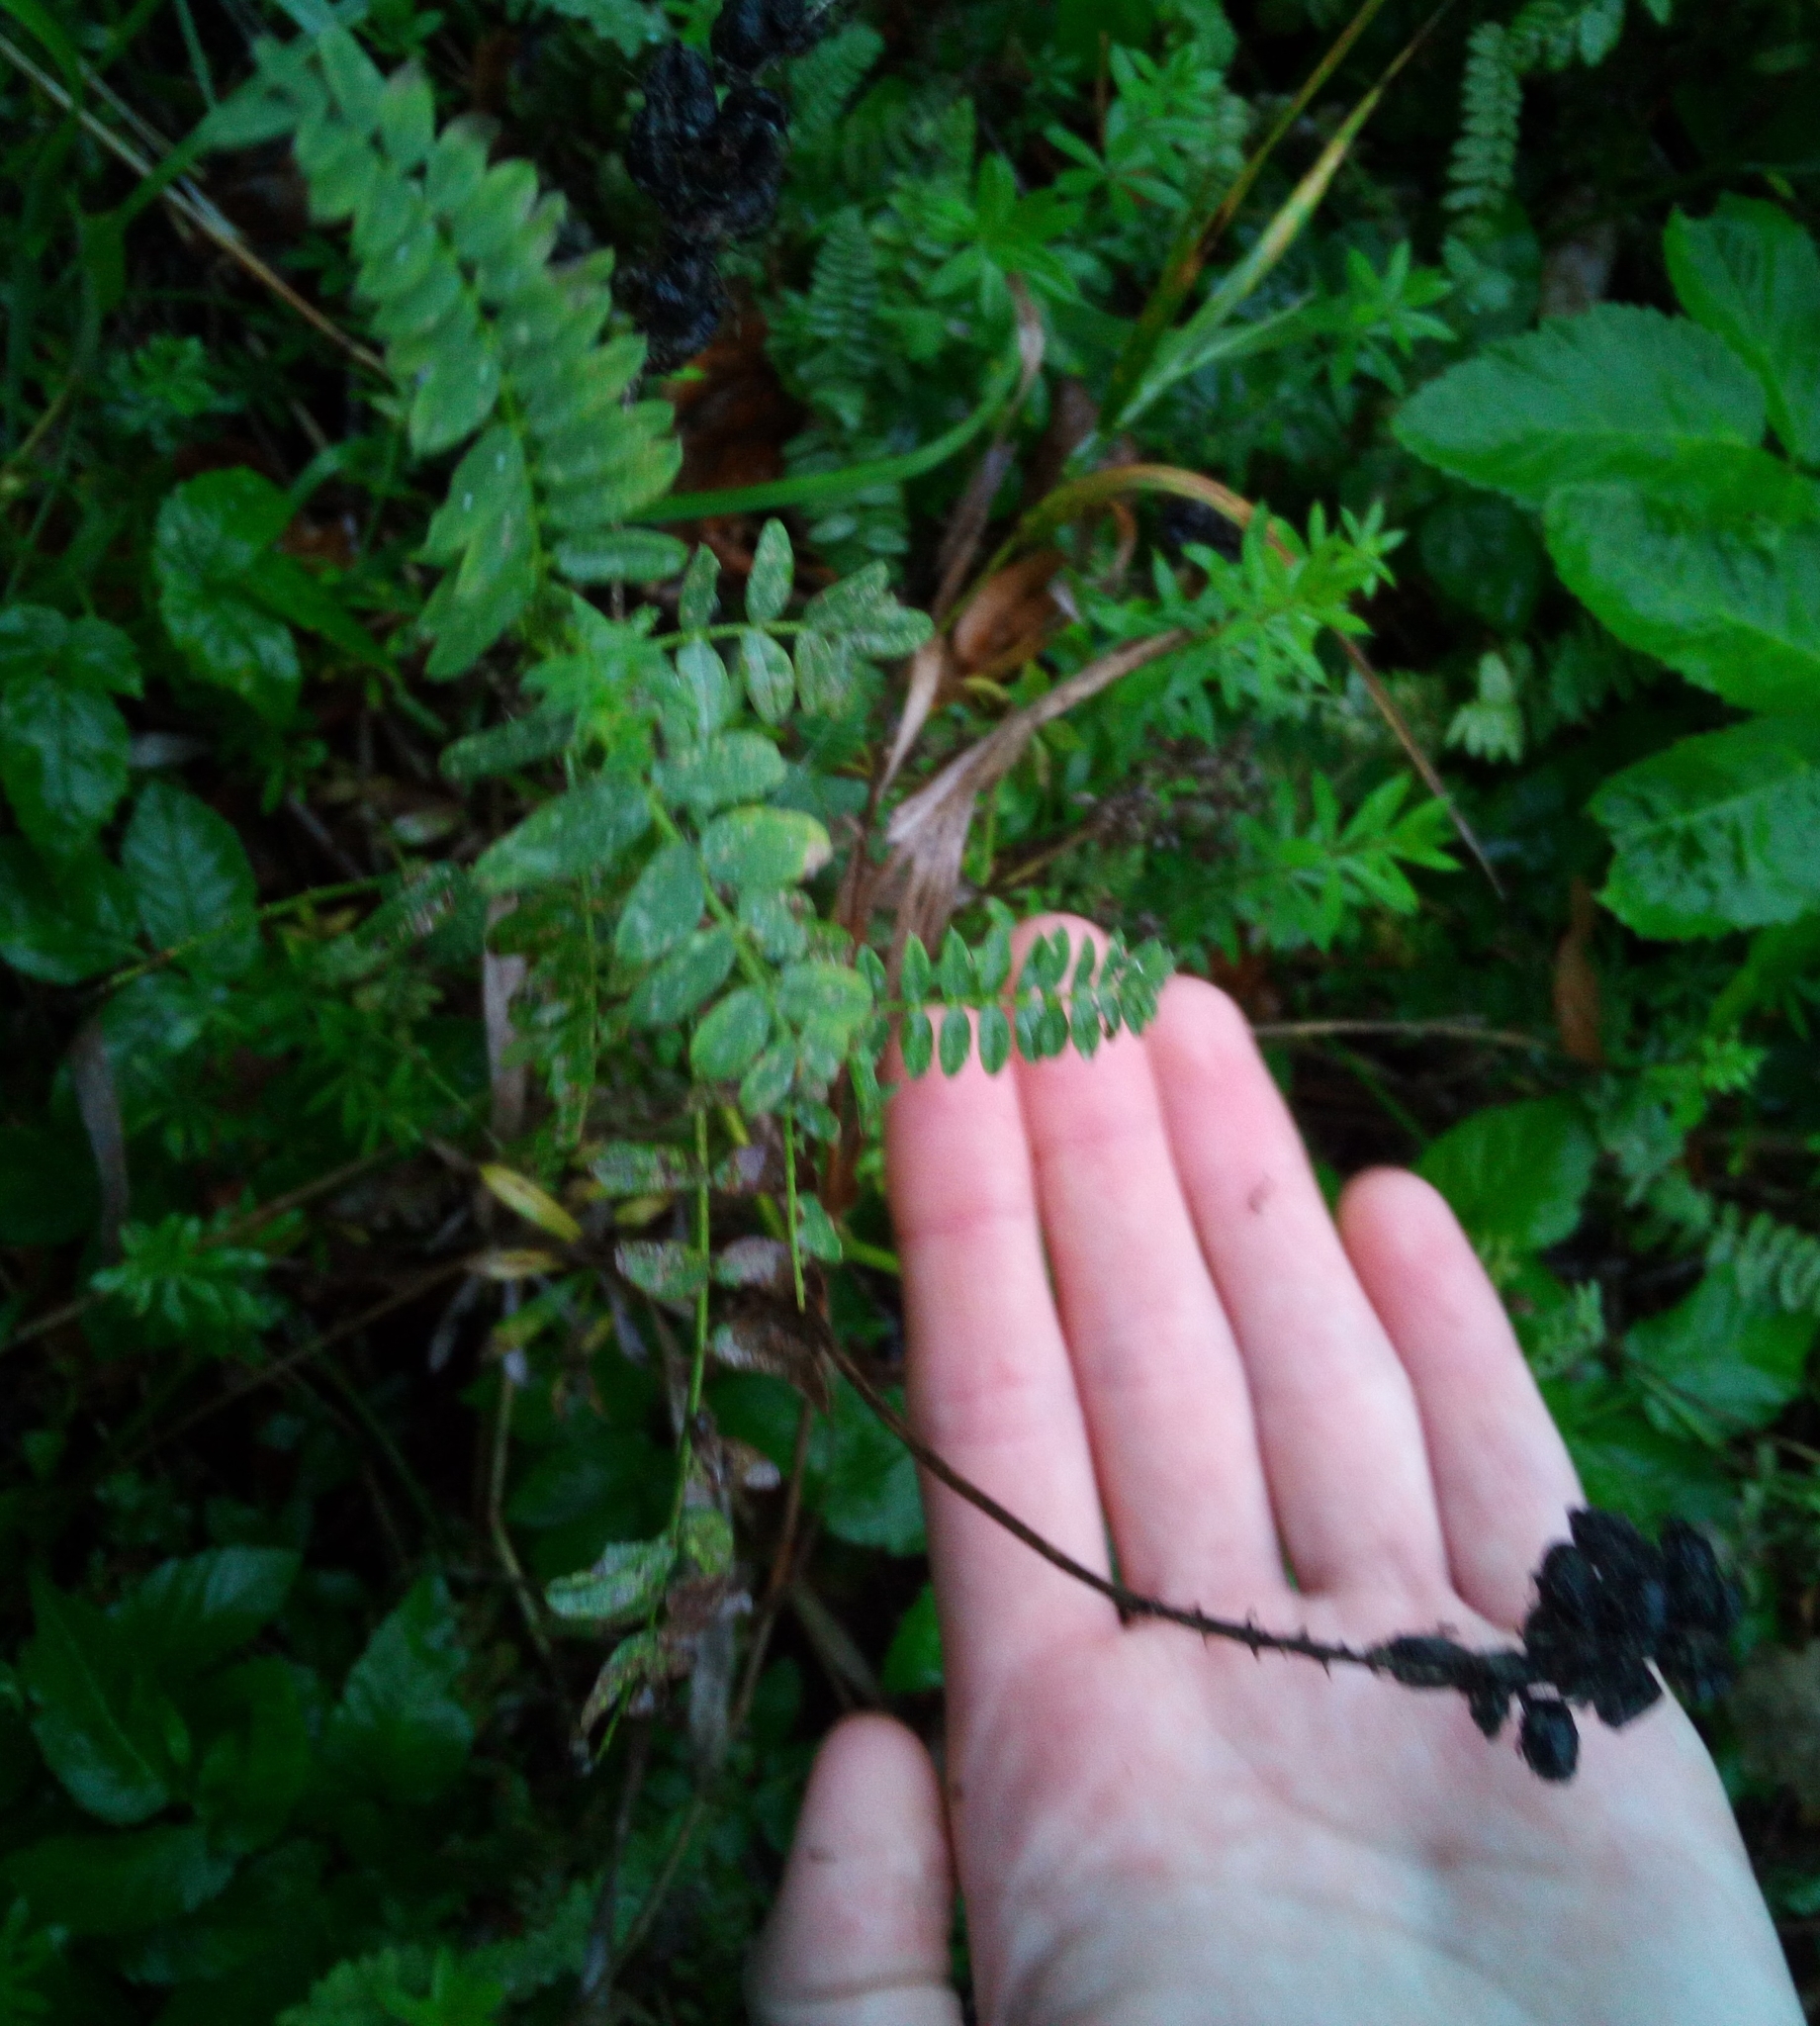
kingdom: Plantae
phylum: Tracheophyta
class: Magnoliopsida
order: Fabales
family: Fabaceae
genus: Astragalus
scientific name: Astragalus danicus
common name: Purple milk-vetch
